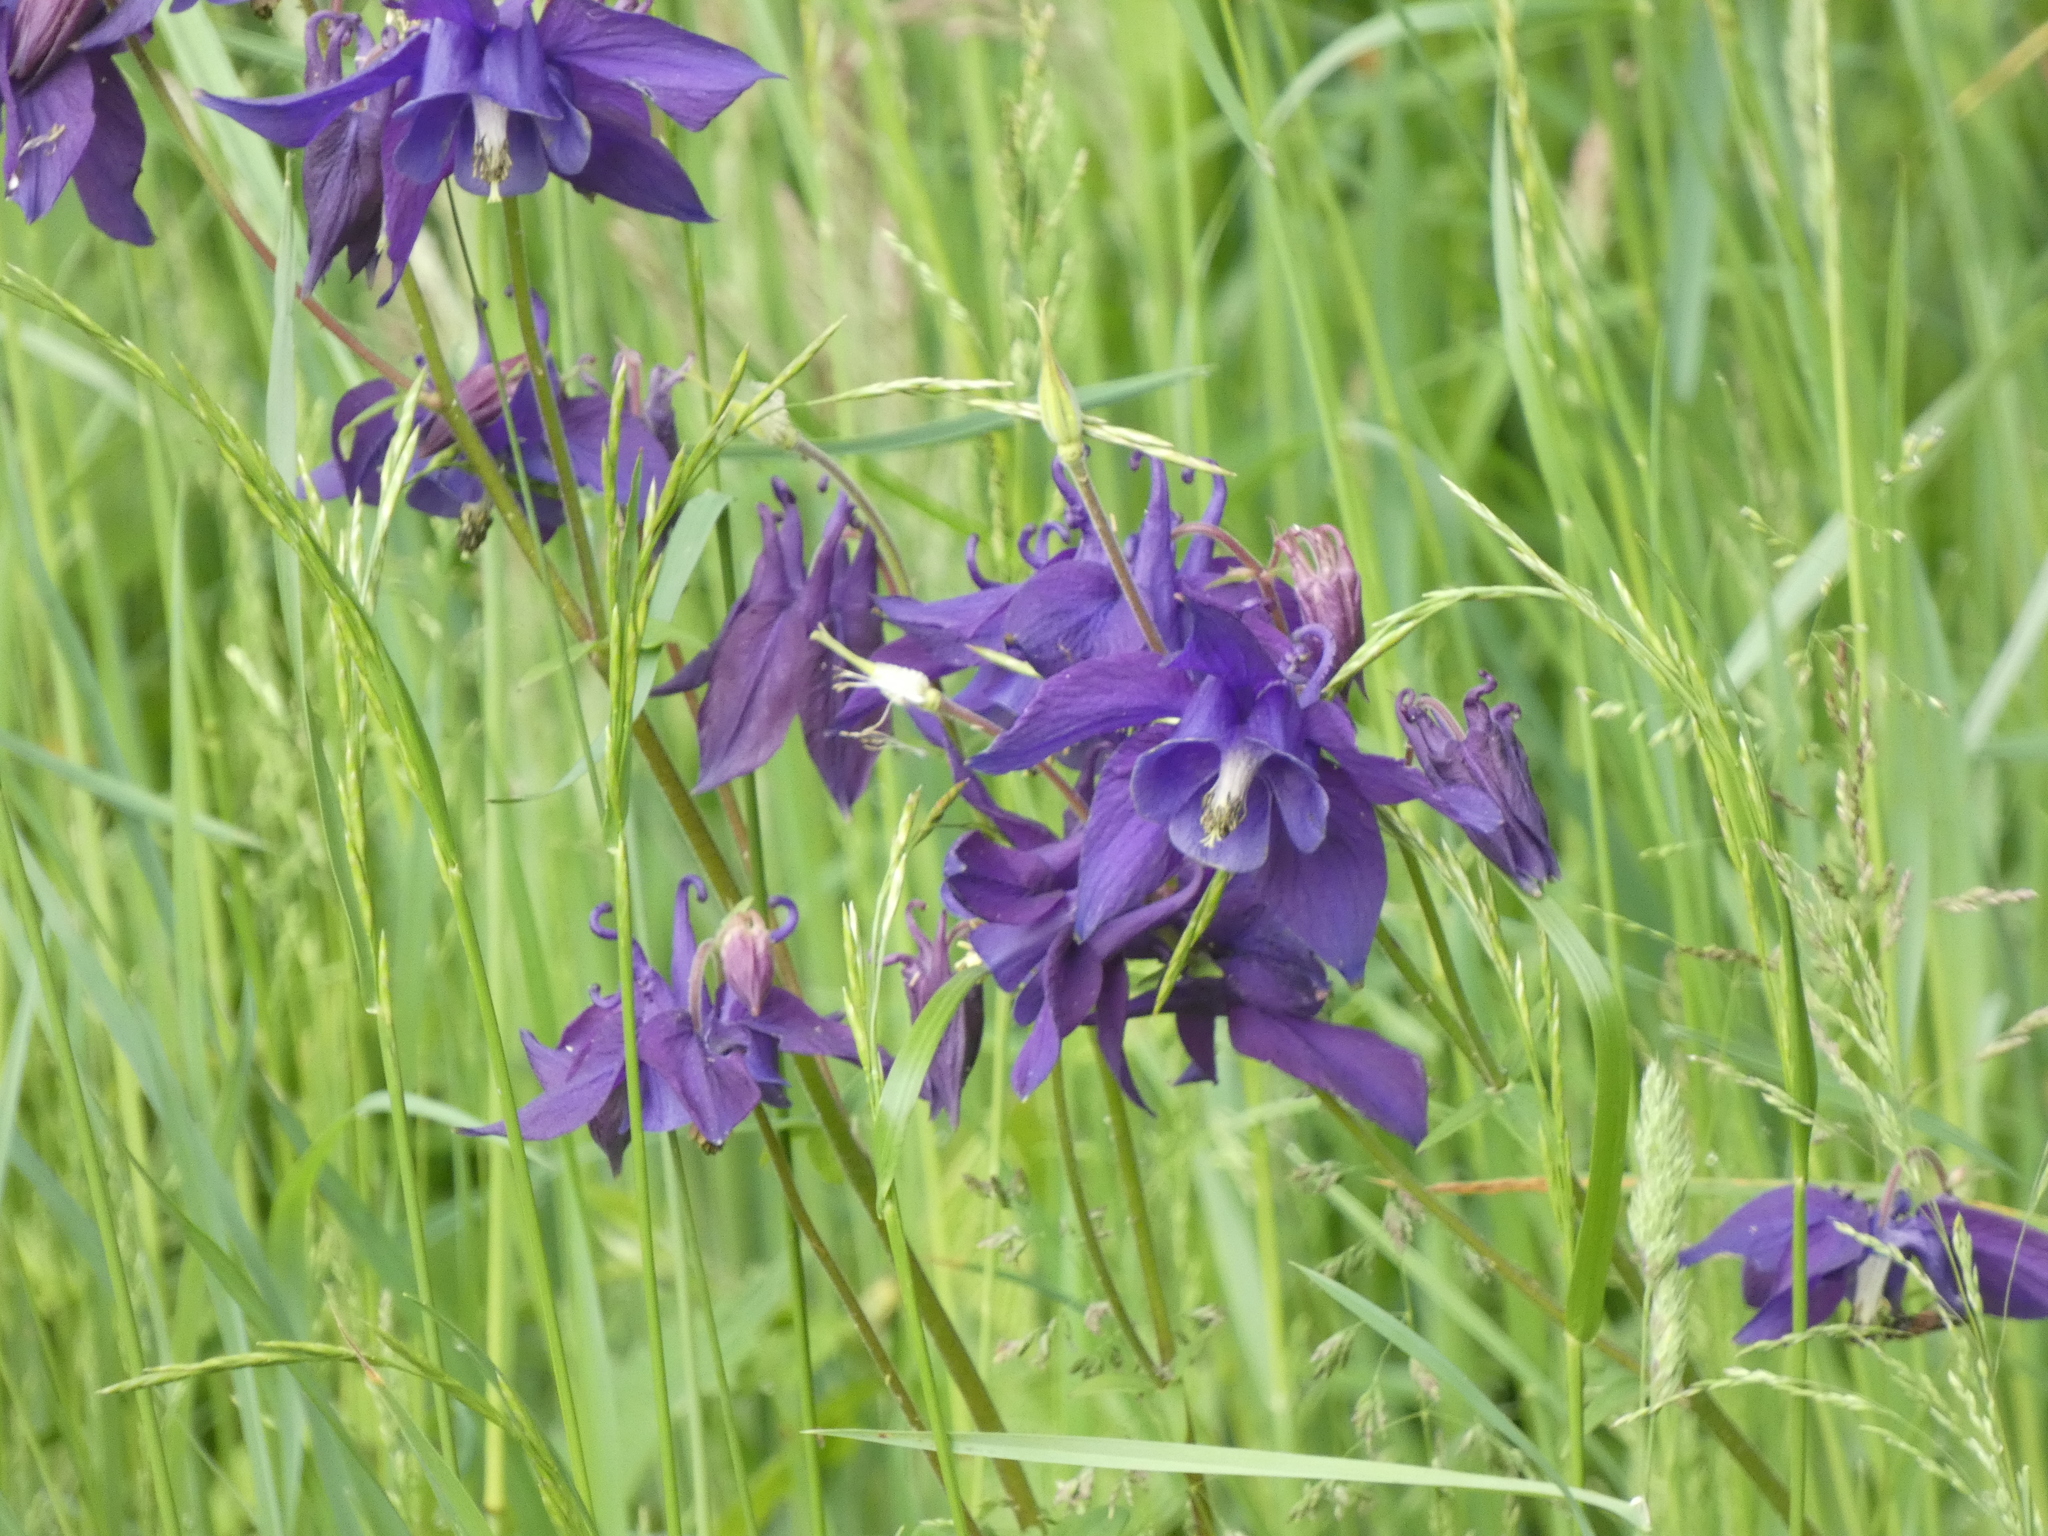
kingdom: Plantae
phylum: Tracheophyta
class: Magnoliopsida
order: Ranunculales
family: Ranunculaceae
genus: Aquilegia
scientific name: Aquilegia vulgaris
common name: Columbine
